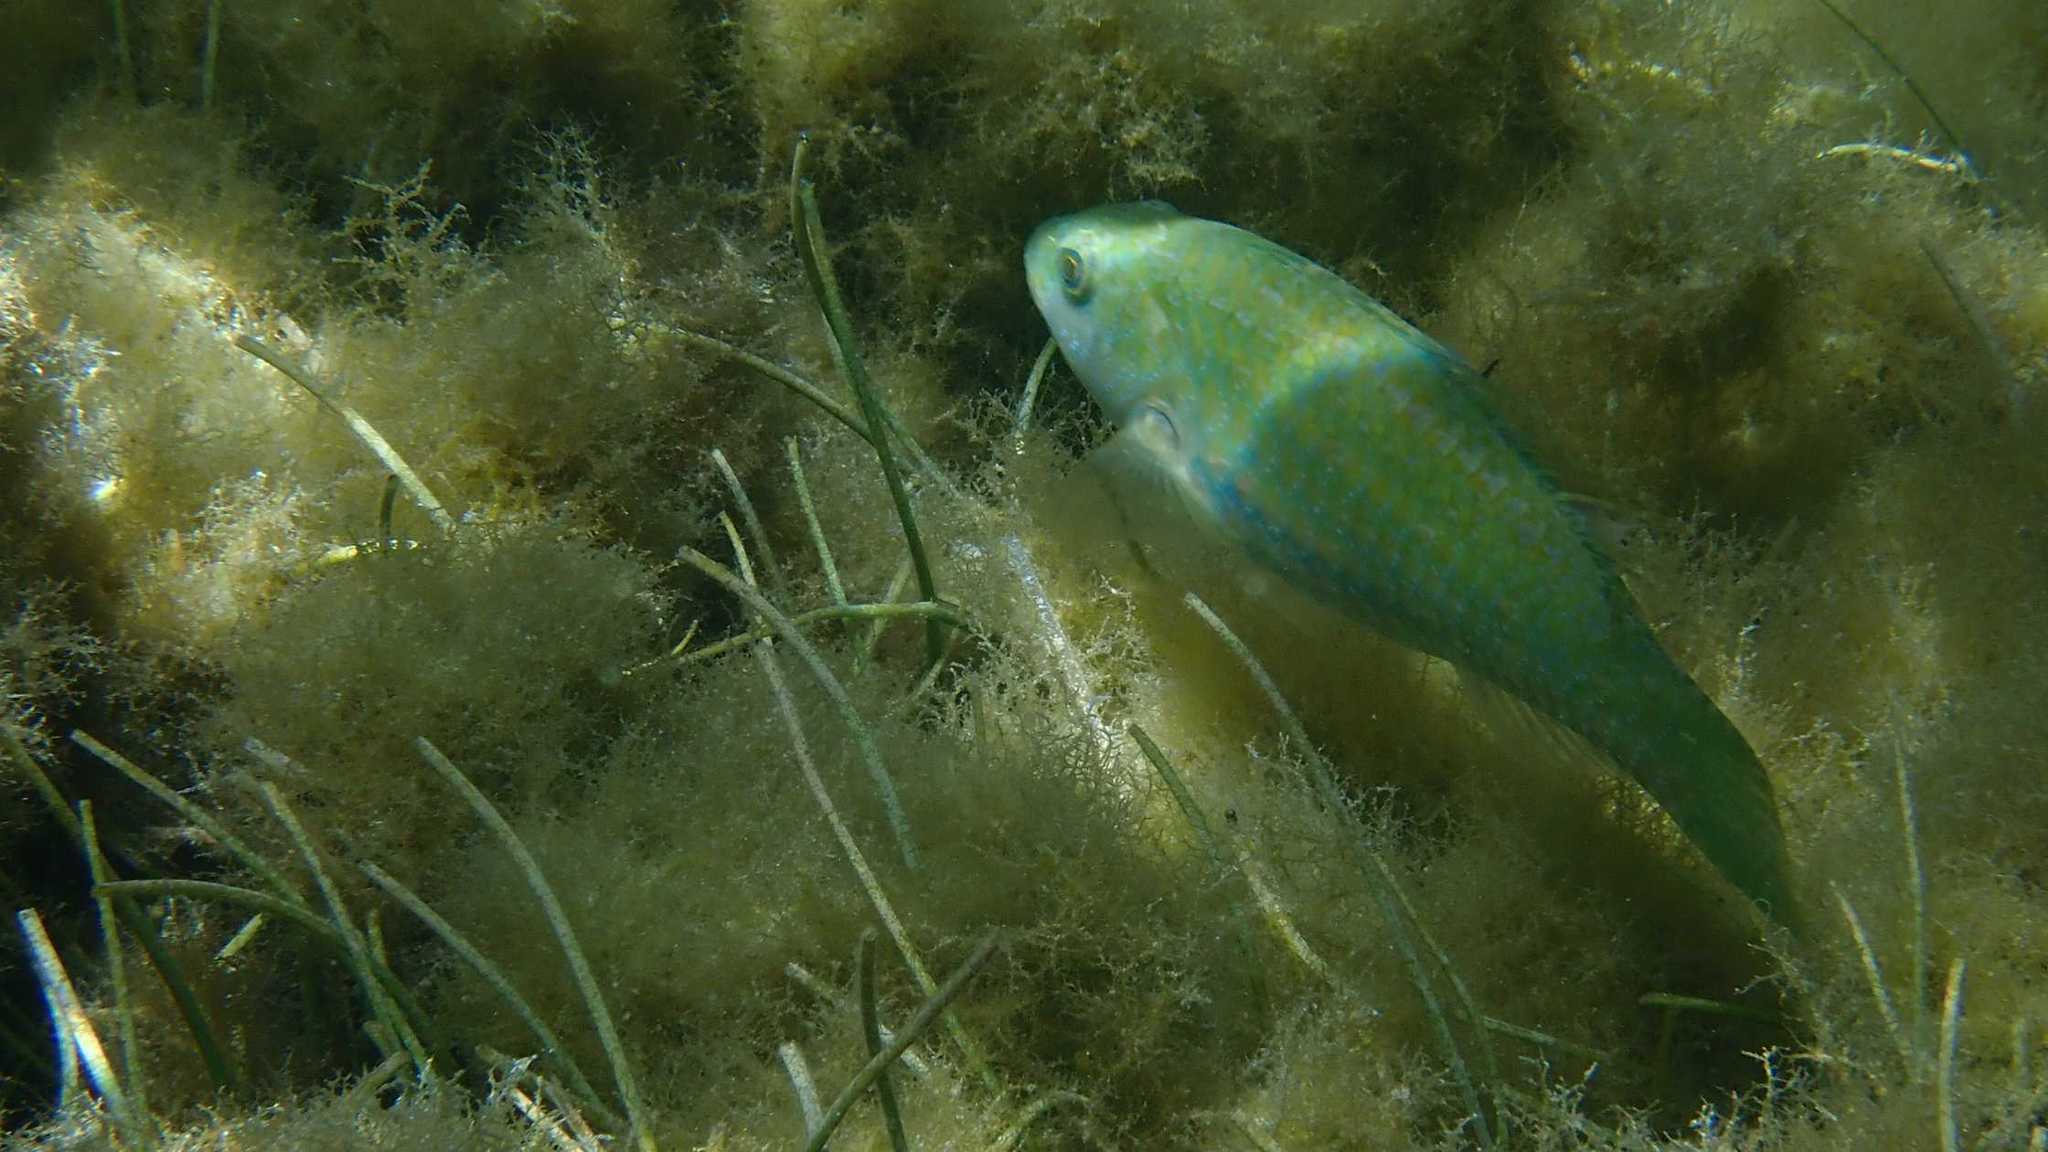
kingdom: Animalia
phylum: Chordata
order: Perciformes
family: Scaridae
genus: Leptoscarus
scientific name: Leptoscarus vaigiensis
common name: Marbled parrotfish
